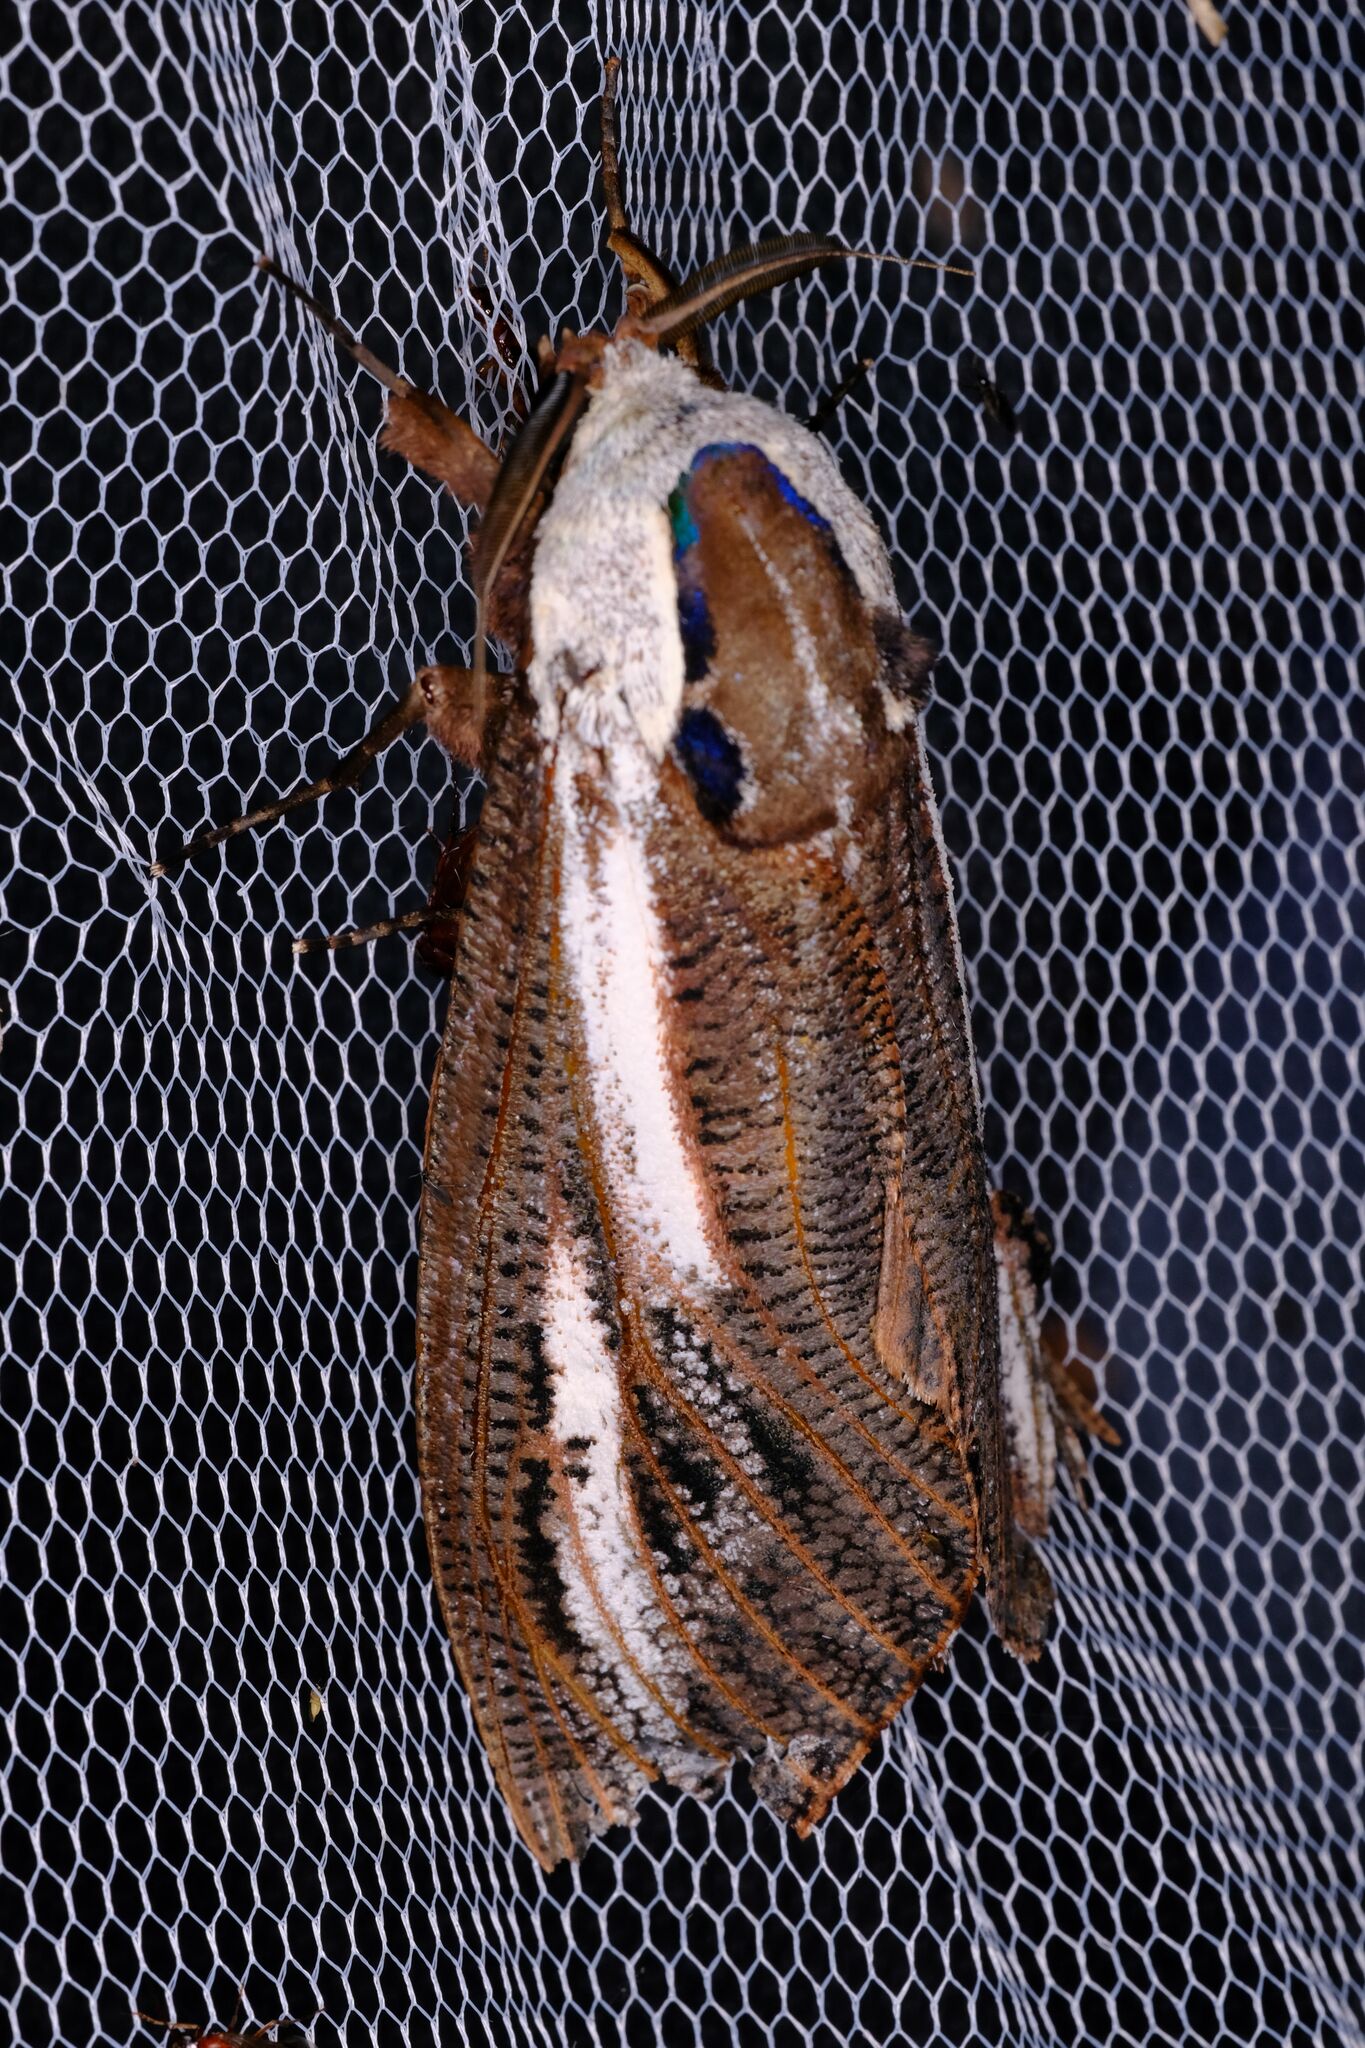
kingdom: Animalia
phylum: Arthropoda
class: Insecta
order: Lepidoptera
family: Cossidae
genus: Endoxyla
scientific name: Endoxyla encalypti
